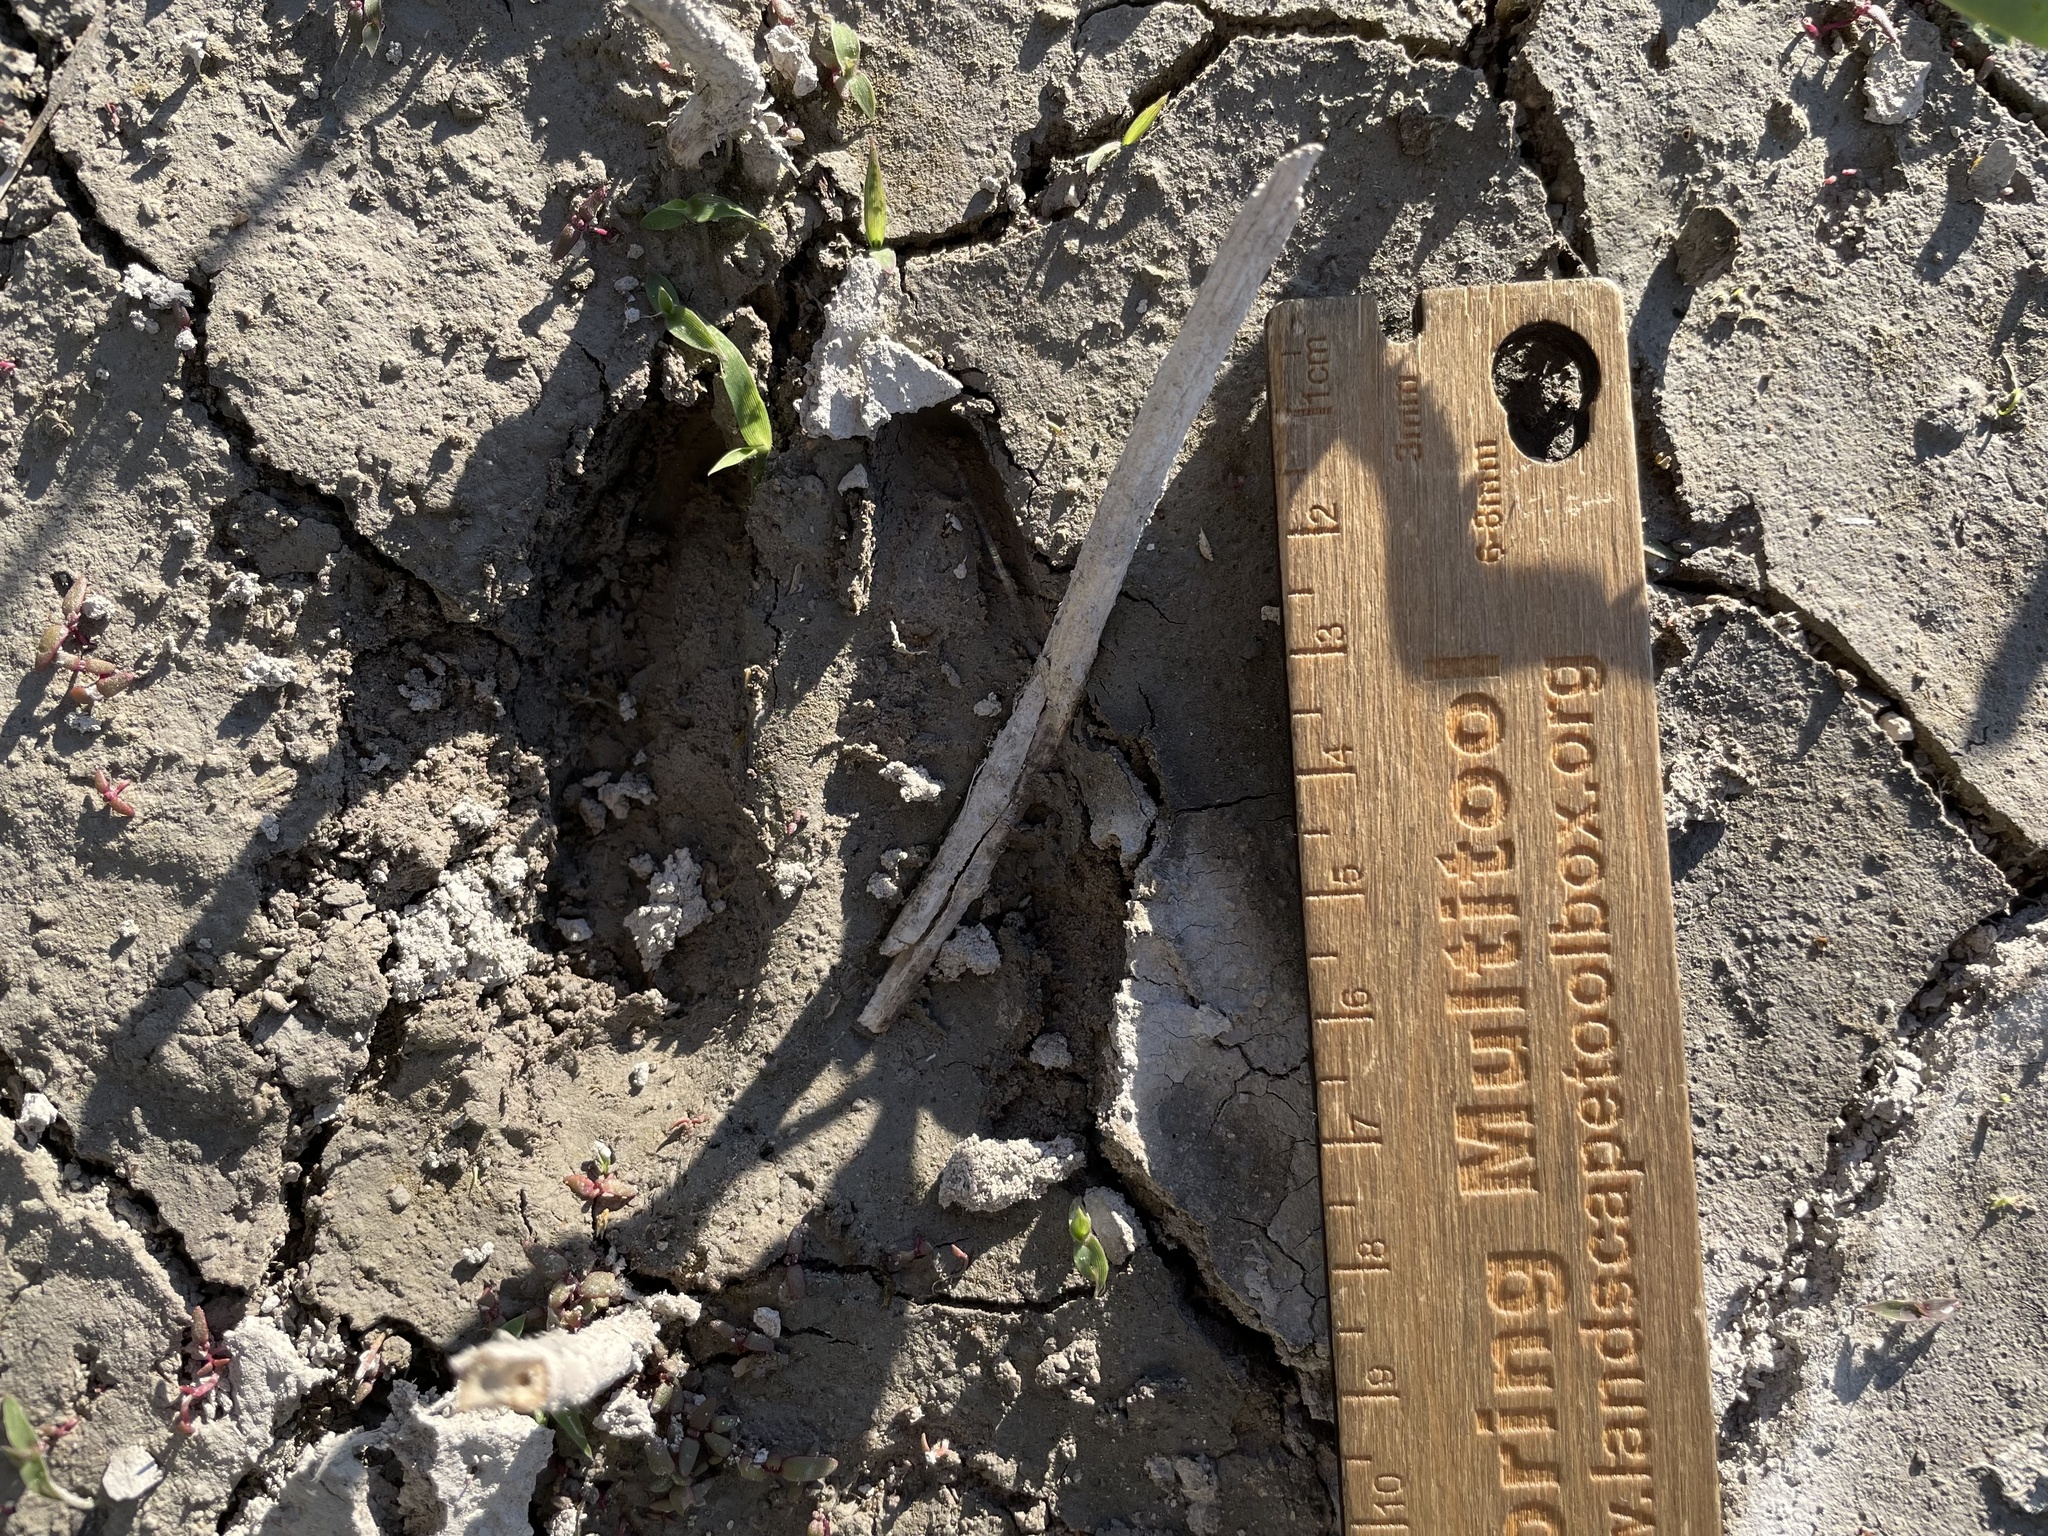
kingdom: Animalia
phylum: Chordata
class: Mammalia
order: Artiodactyla
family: Cervidae
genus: Odocoileus
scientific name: Odocoileus hemionus
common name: Mule deer
